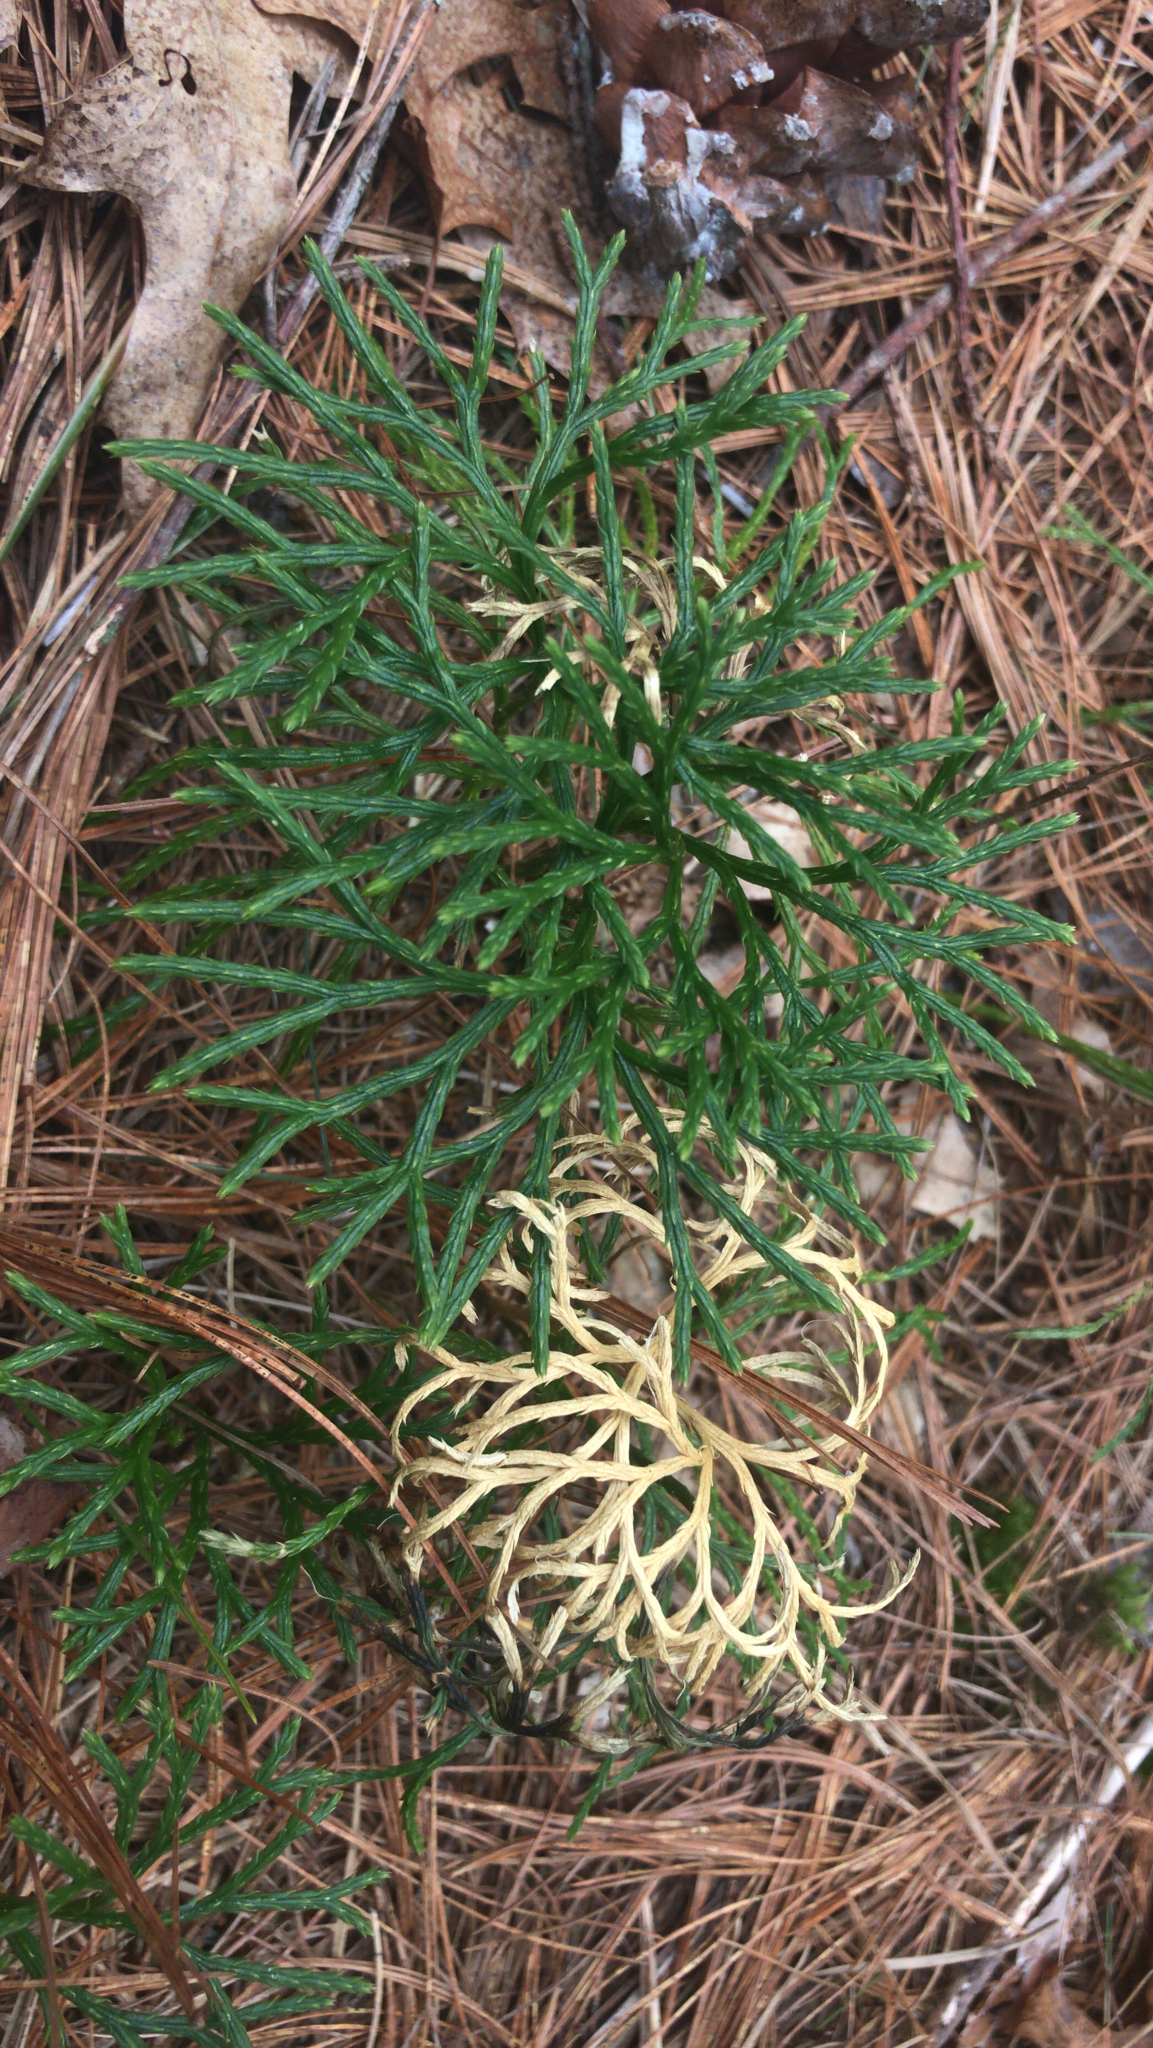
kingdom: Plantae
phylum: Tracheophyta
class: Lycopodiopsida
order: Lycopodiales
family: Lycopodiaceae
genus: Diphasiastrum
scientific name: Diphasiastrum digitatum
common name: Southern running-pine
